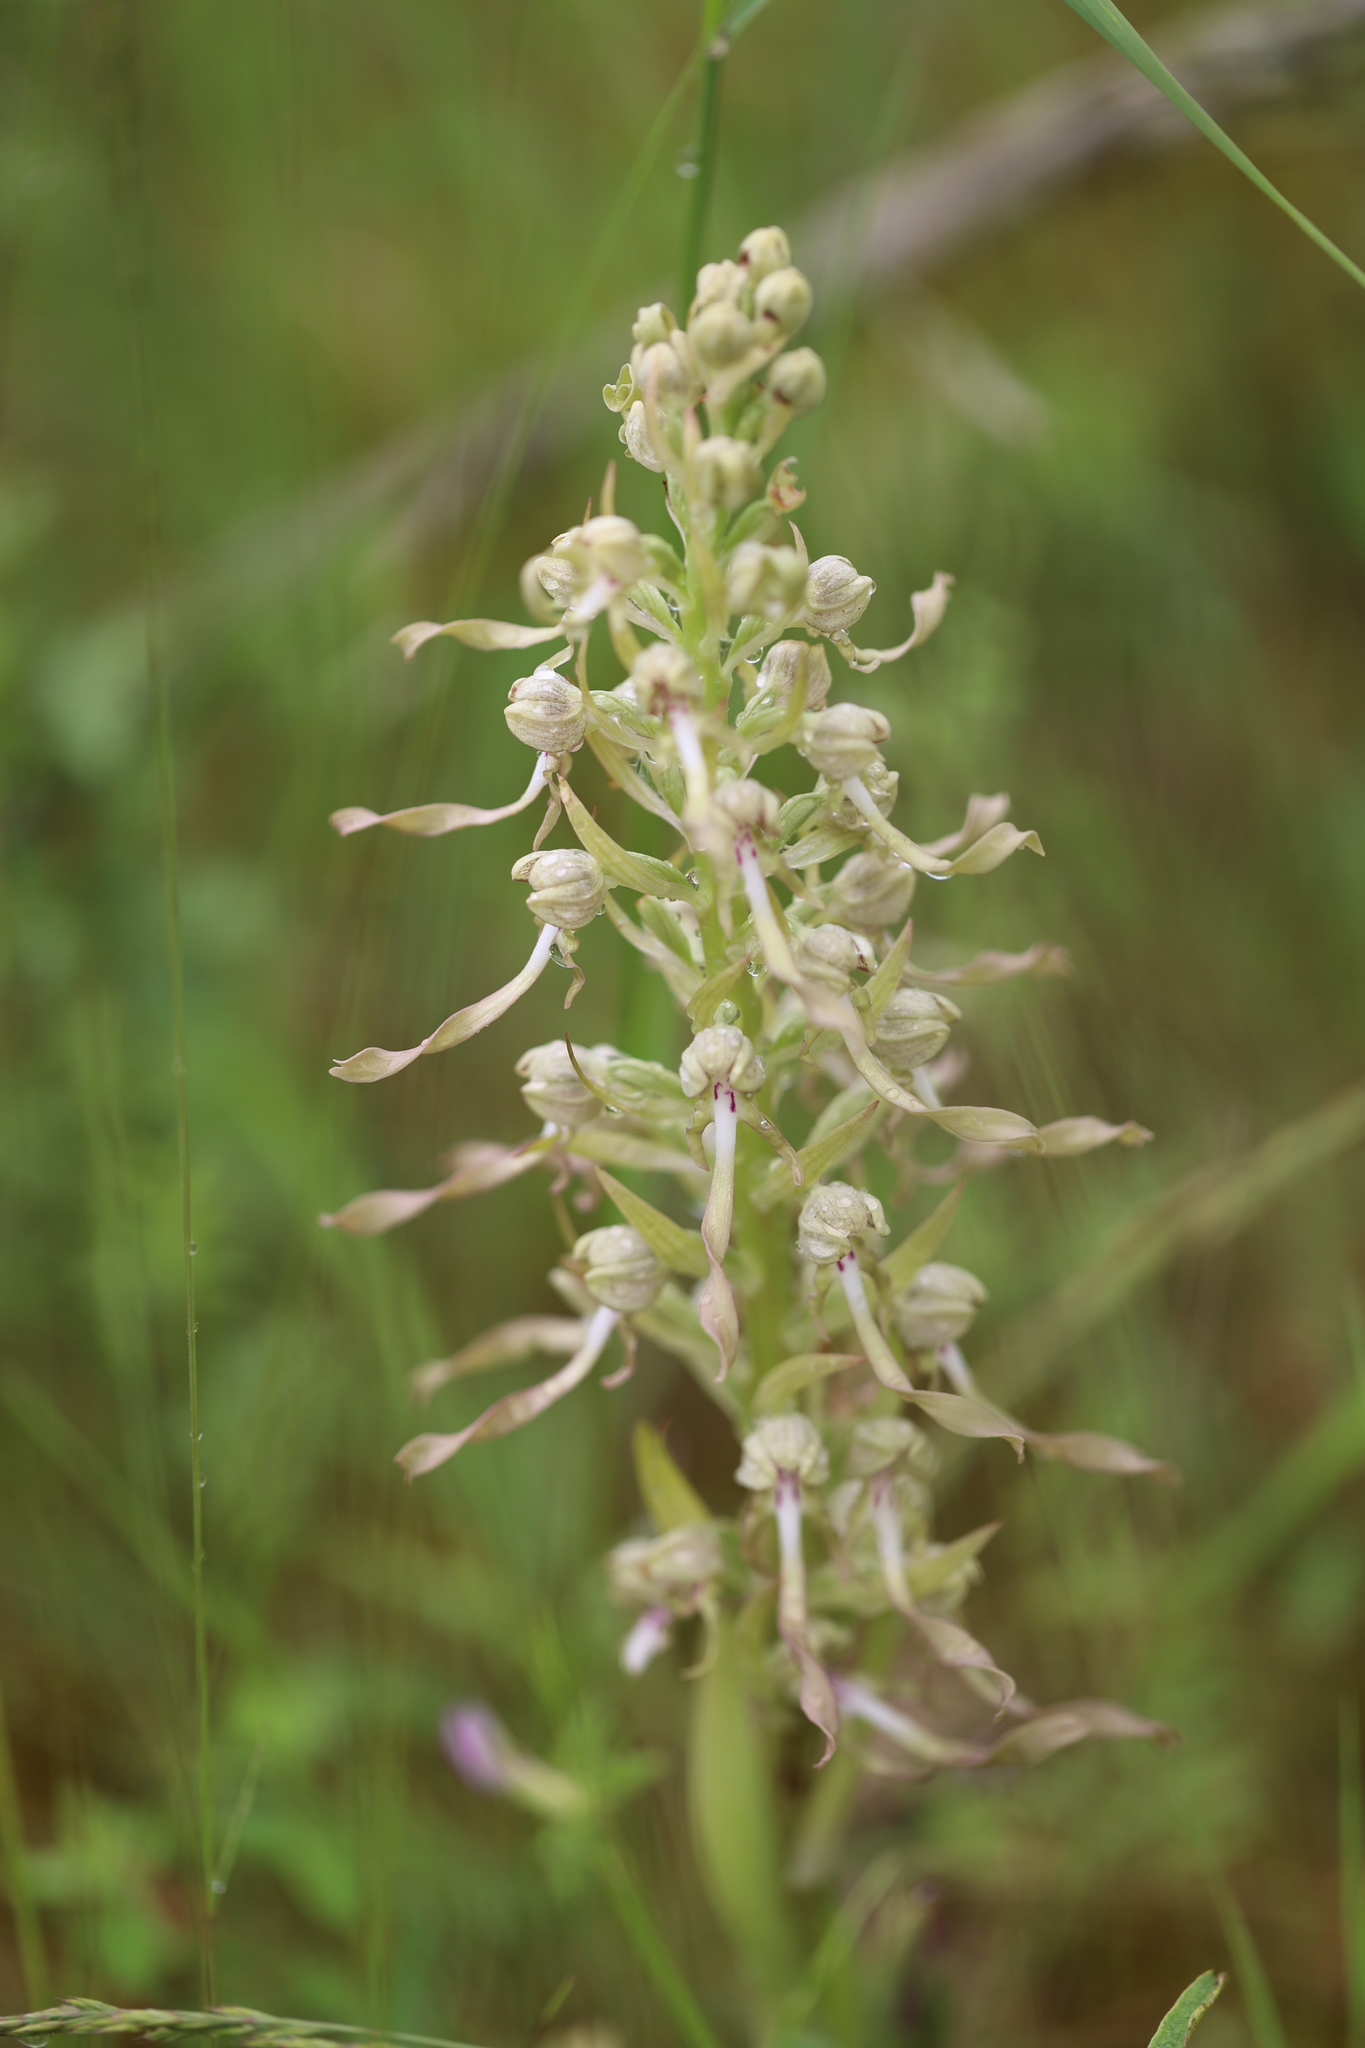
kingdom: Plantae
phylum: Tracheophyta
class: Liliopsida
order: Asparagales
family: Orchidaceae
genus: Himantoglossum
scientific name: Himantoglossum hircinum
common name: Lizard orchid
